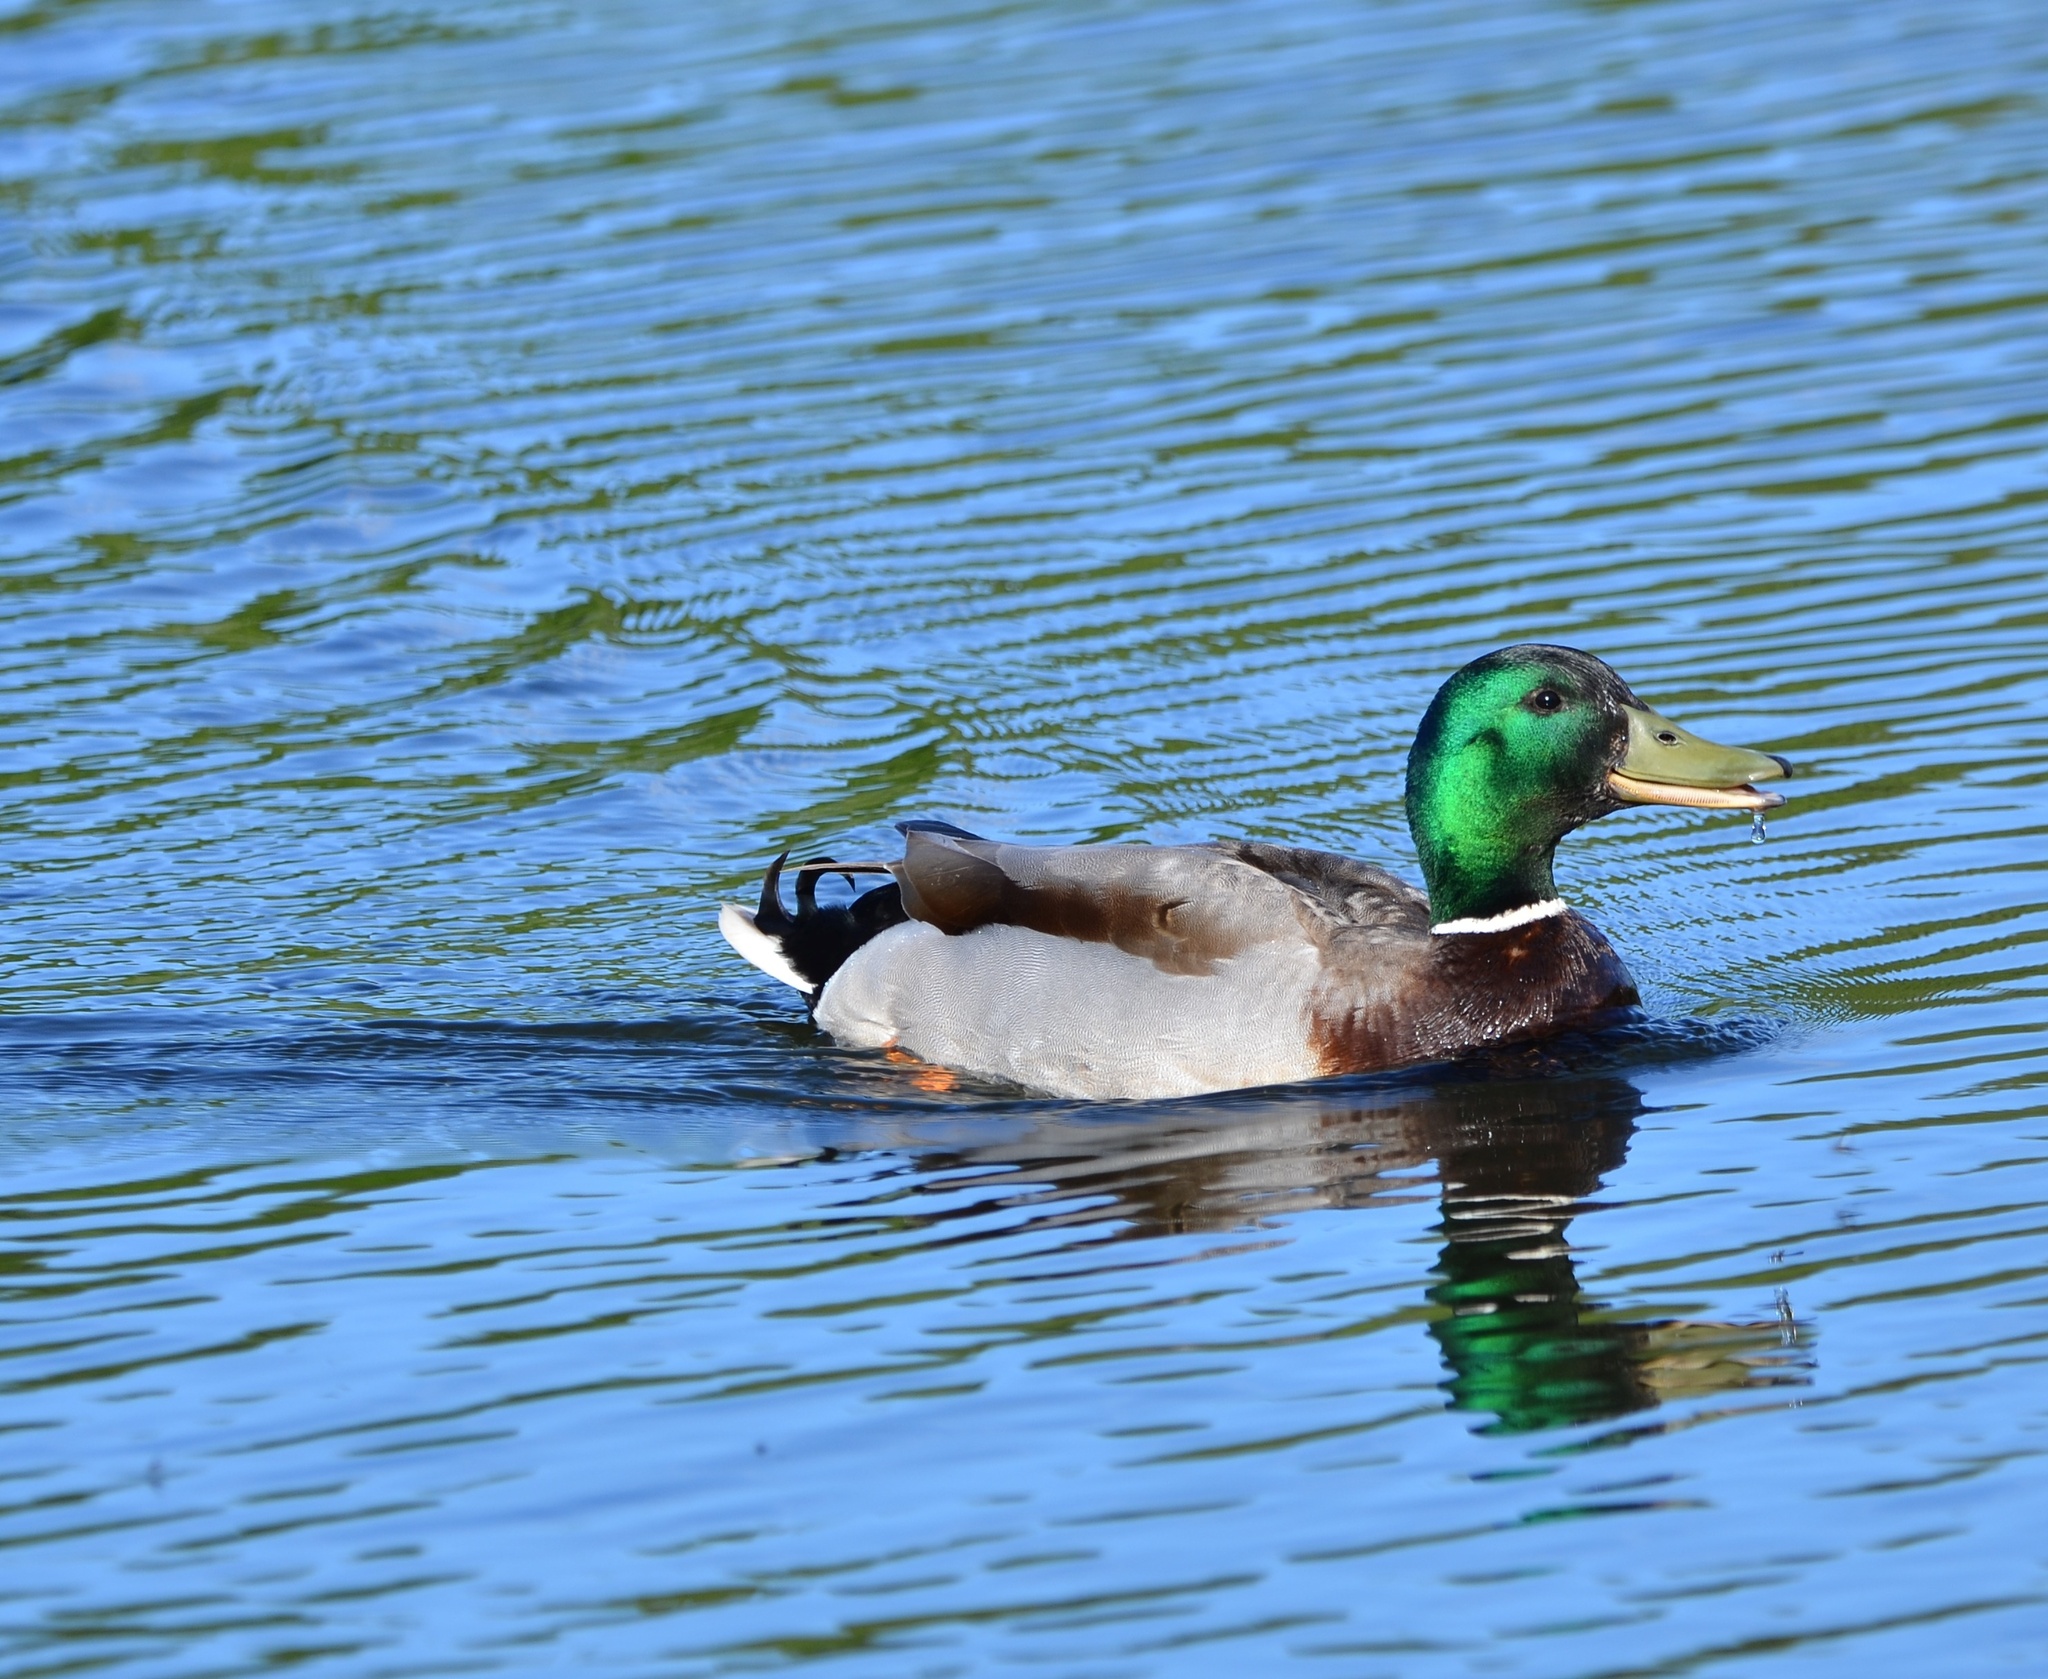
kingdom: Animalia
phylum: Chordata
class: Aves
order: Anseriformes
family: Anatidae
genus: Anas
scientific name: Anas platyrhynchos
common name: Mallard
